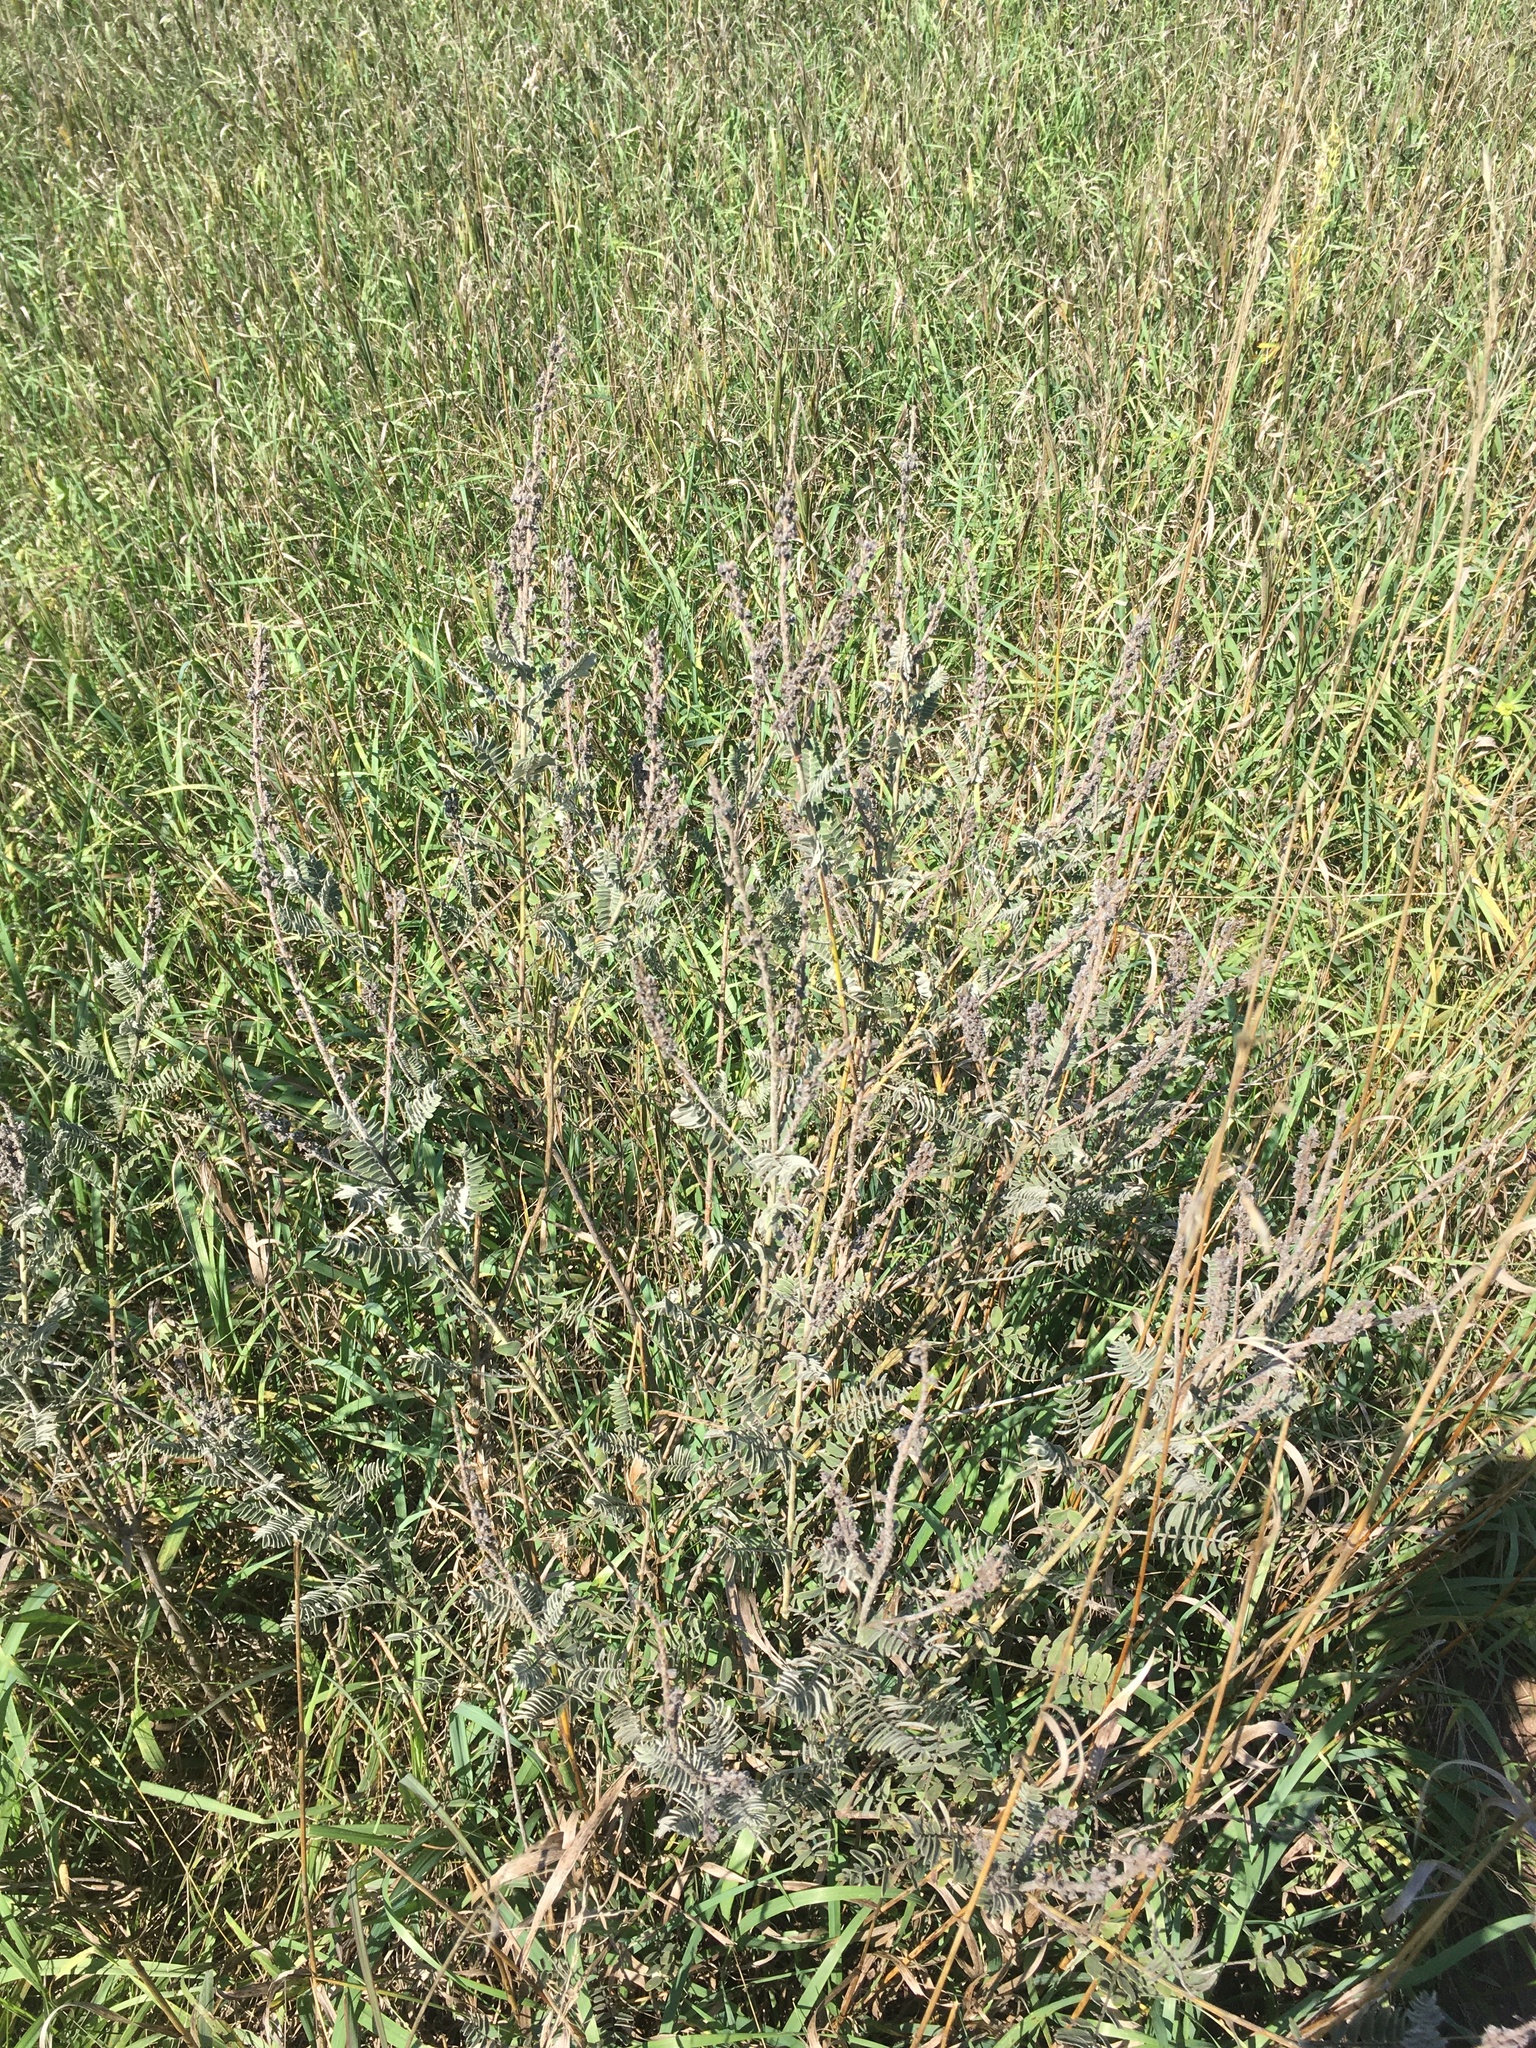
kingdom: Plantae
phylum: Tracheophyta
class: Magnoliopsida
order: Fabales
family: Fabaceae
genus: Amorpha
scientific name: Amorpha canescens
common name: Leadplant
